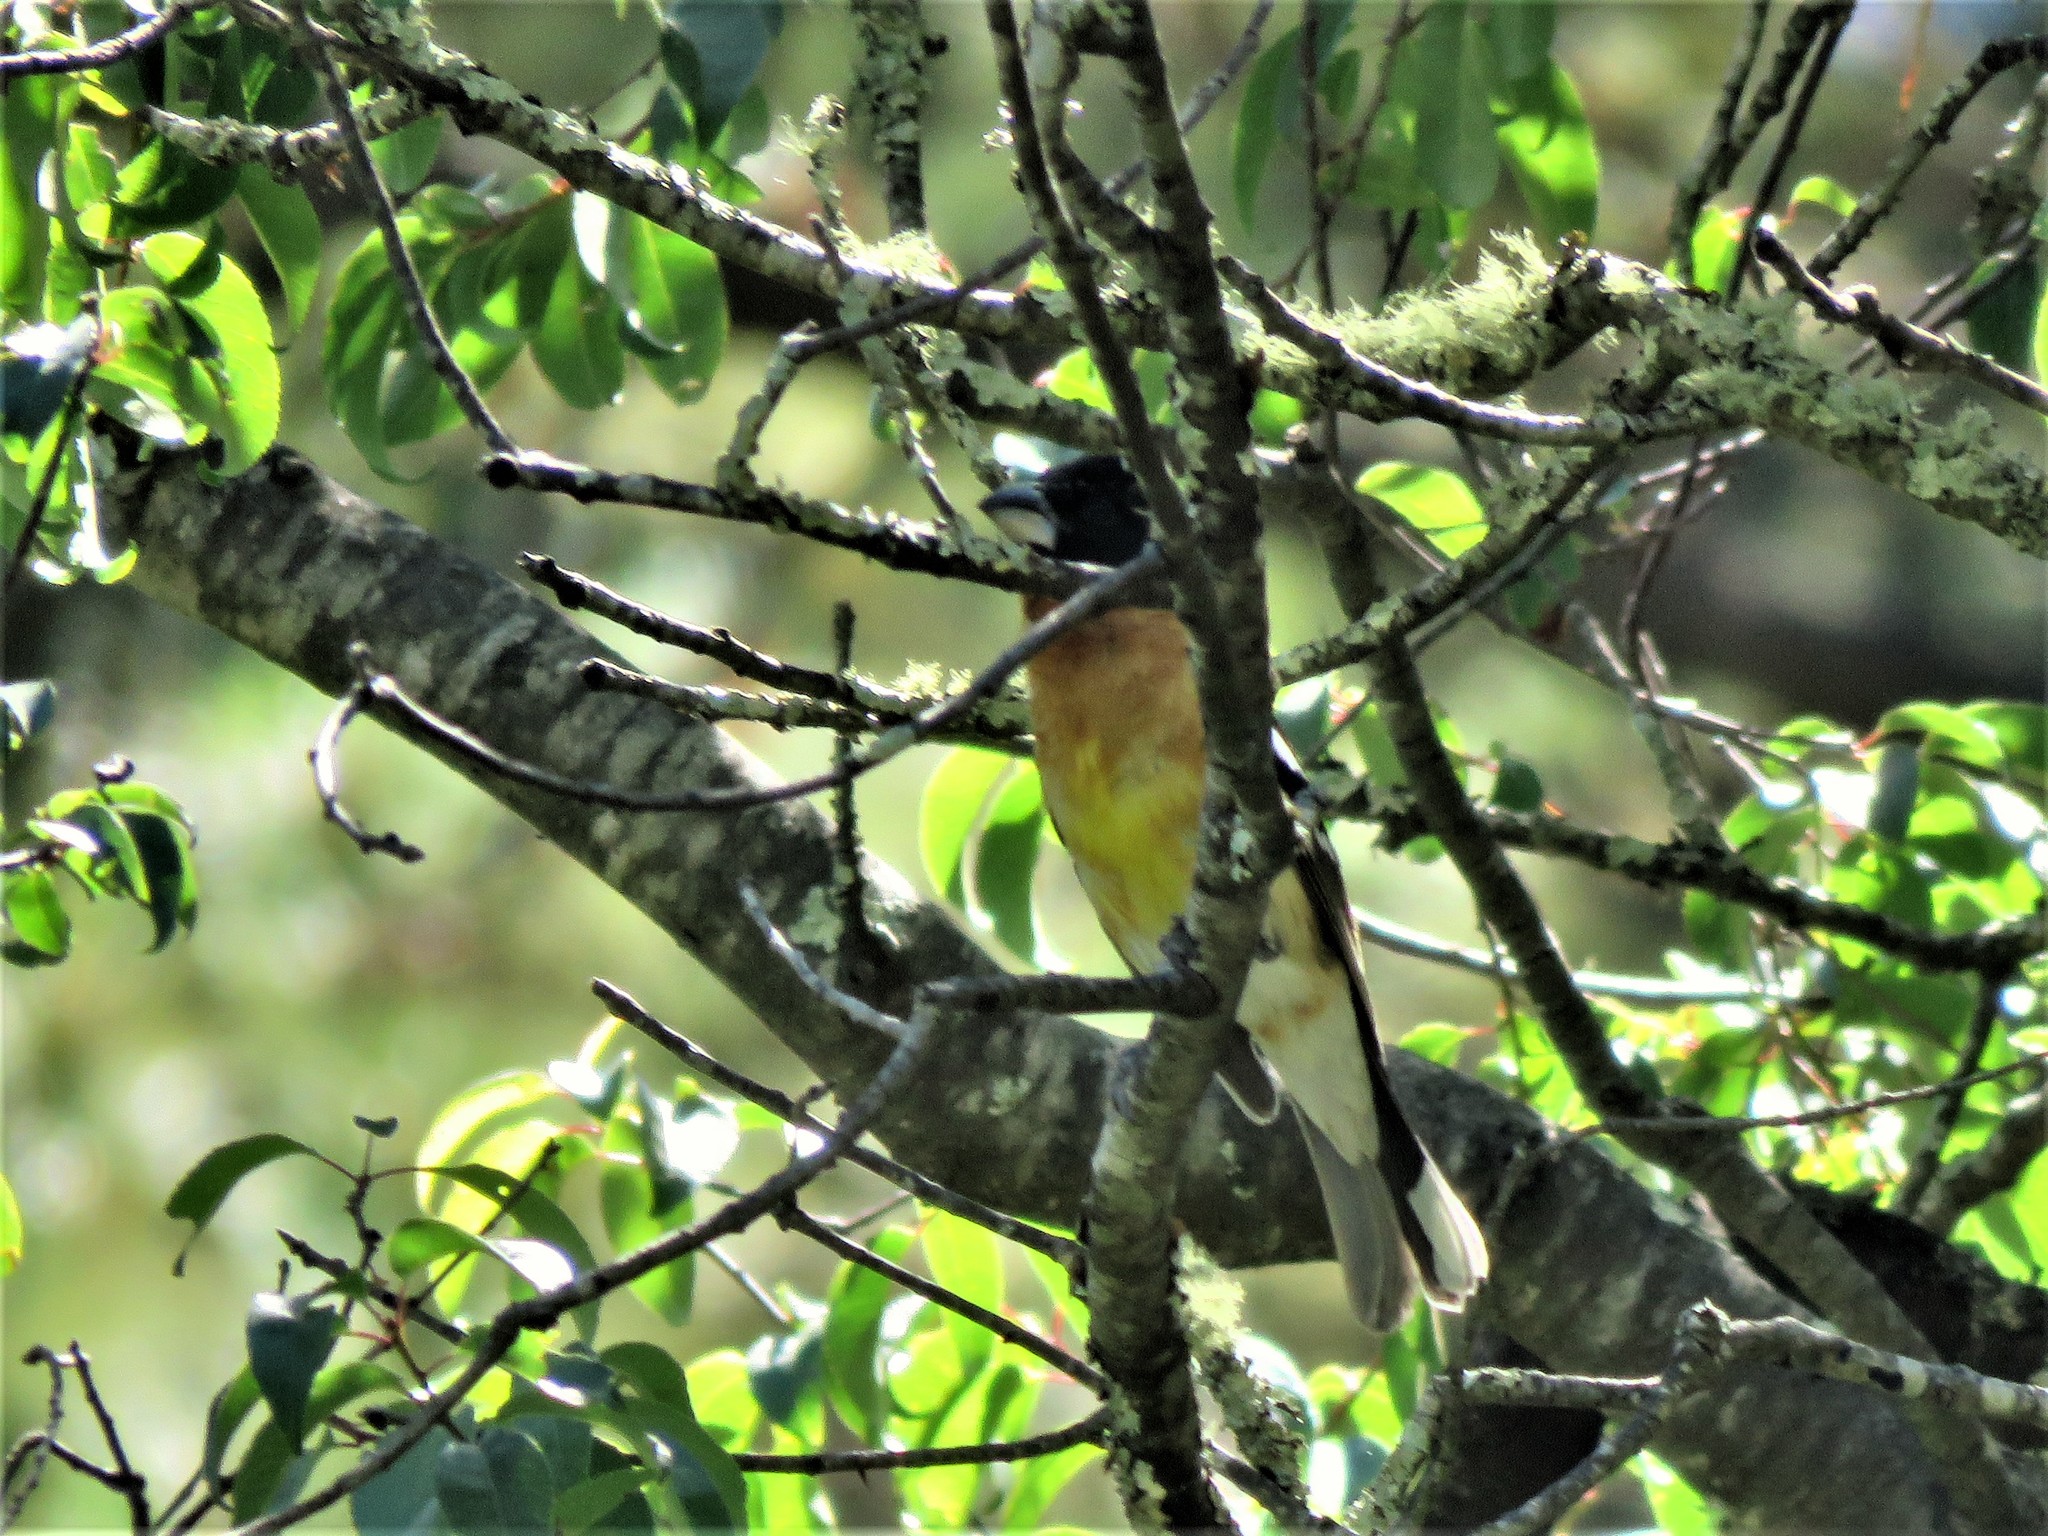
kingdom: Animalia
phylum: Chordata
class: Aves
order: Passeriformes
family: Cardinalidae
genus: Pheucticus
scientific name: Pheucticus melanocephalus
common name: Black-headed grosbeak
